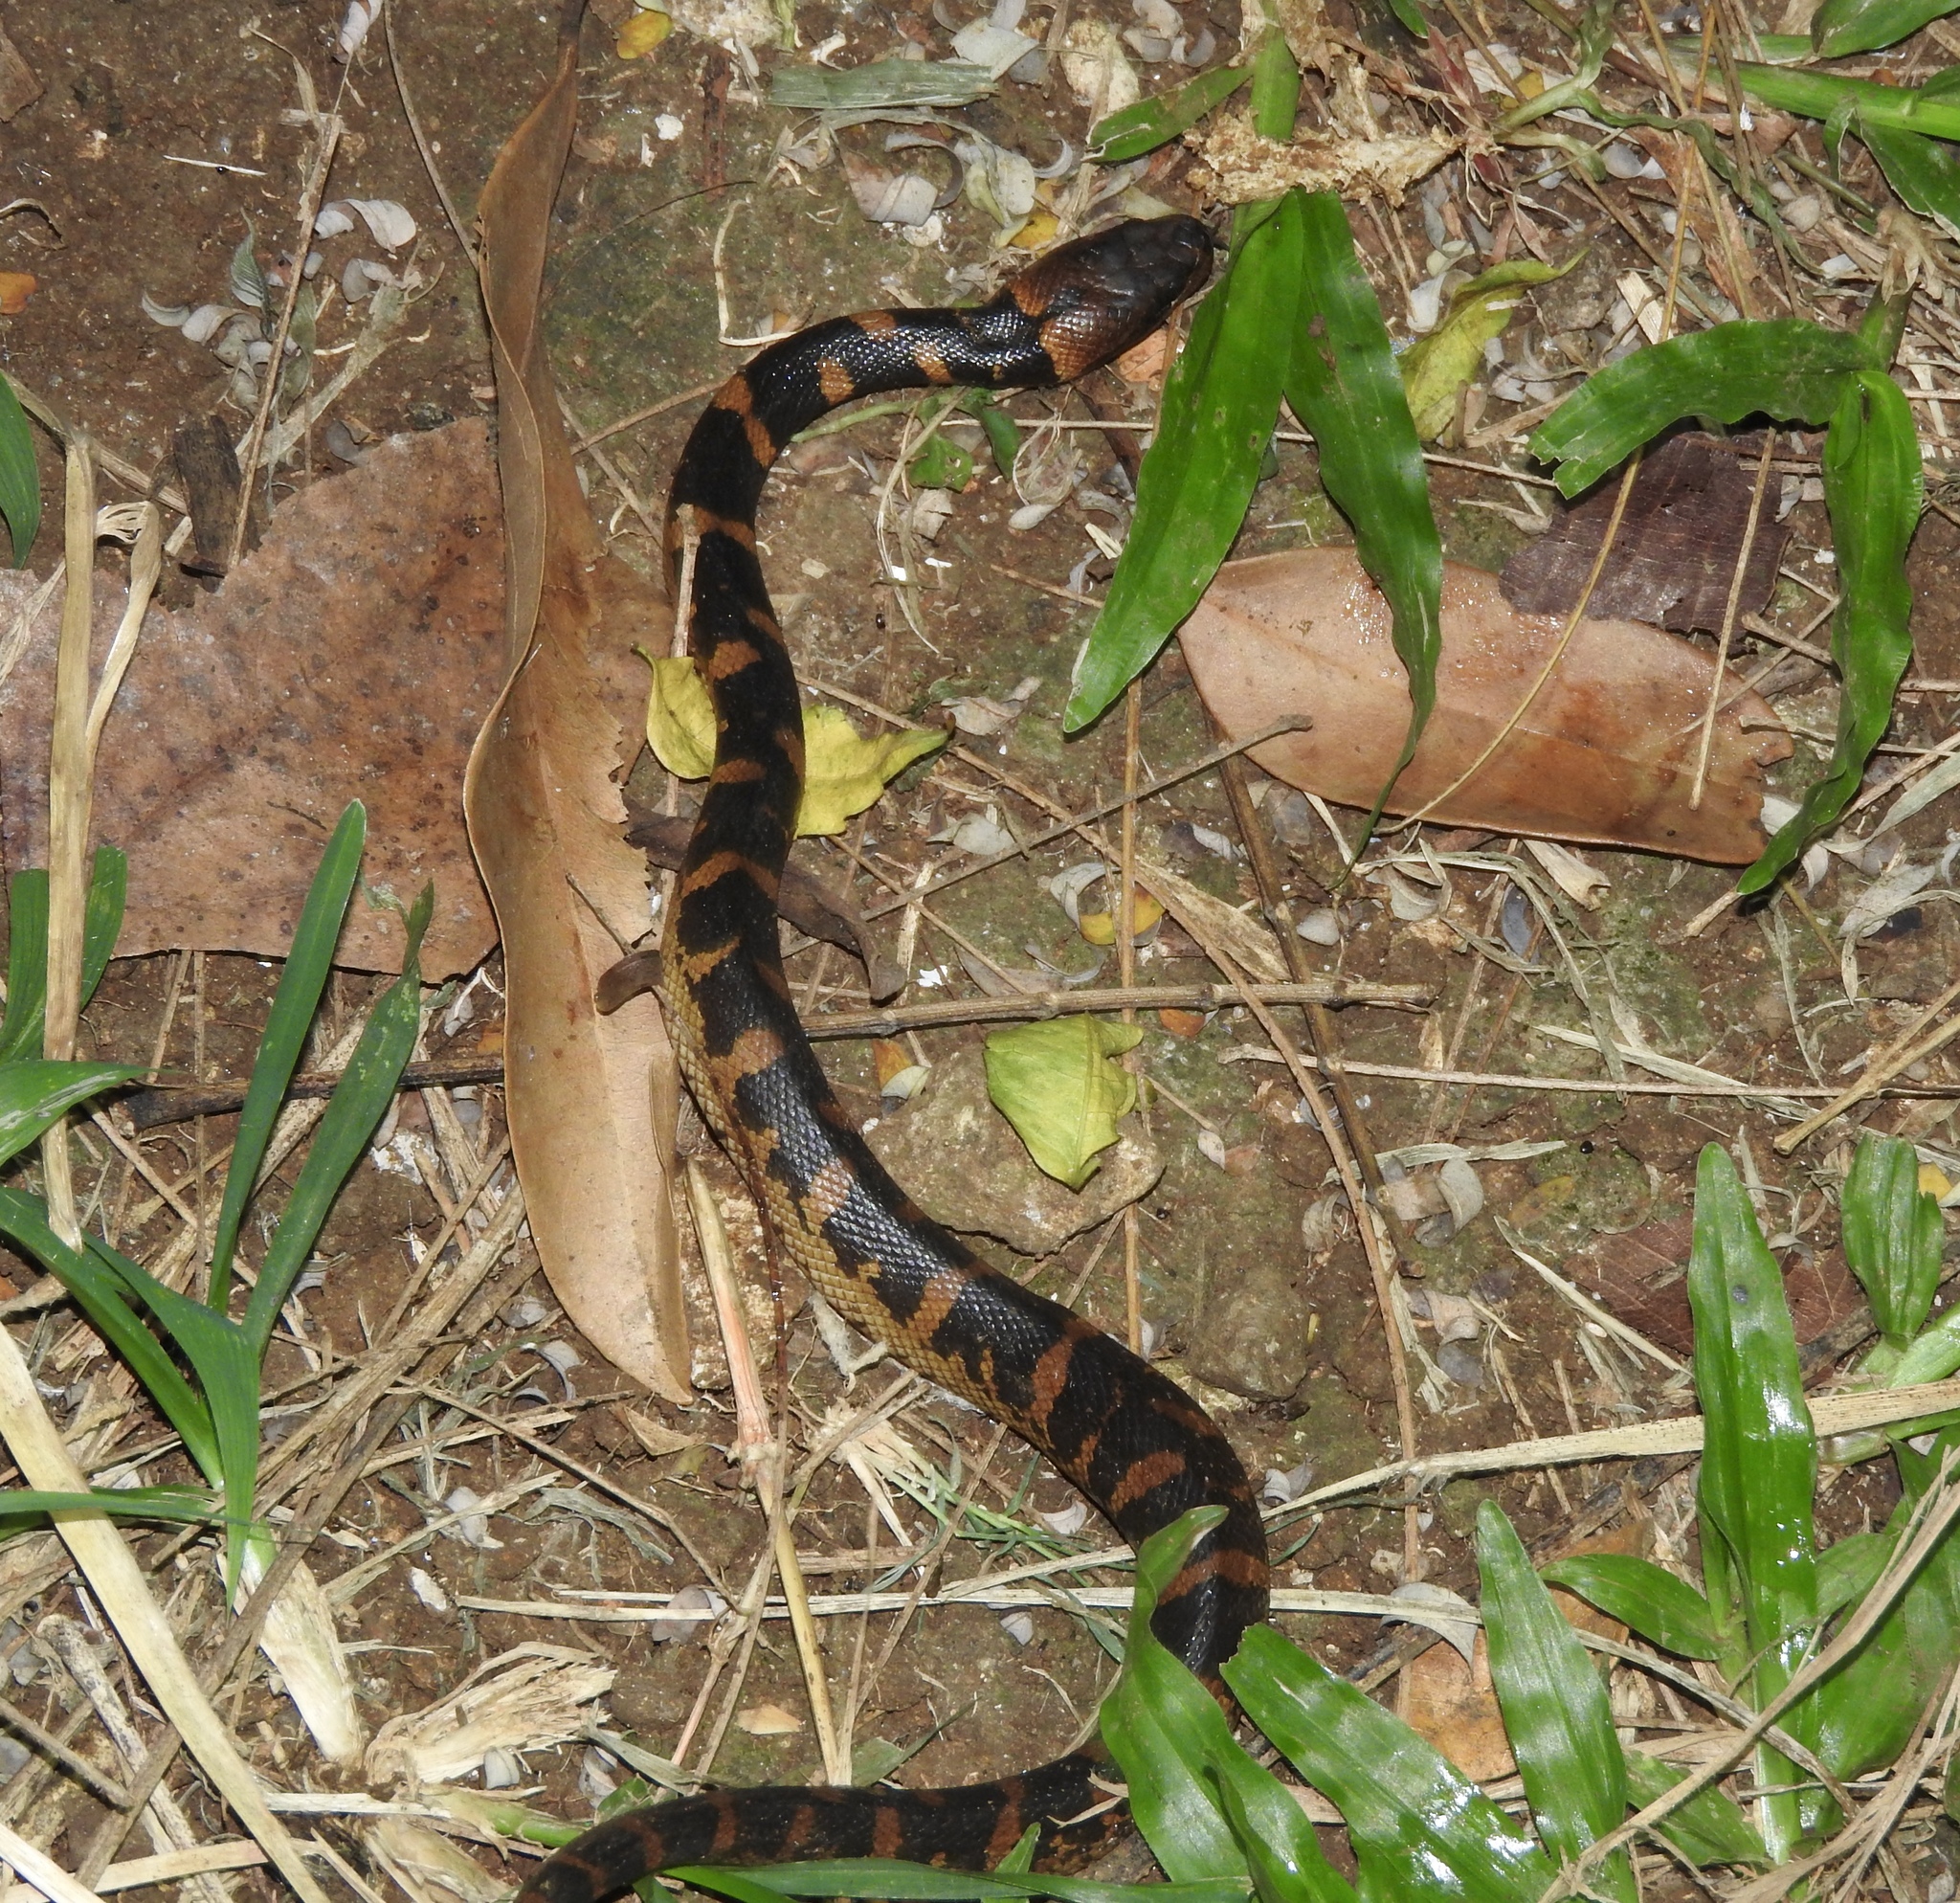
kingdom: Animalia
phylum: Chordata
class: Squamata
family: Homalopsidae
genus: Homalopsis
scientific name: Homalopsis buccata
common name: Masked water snake
